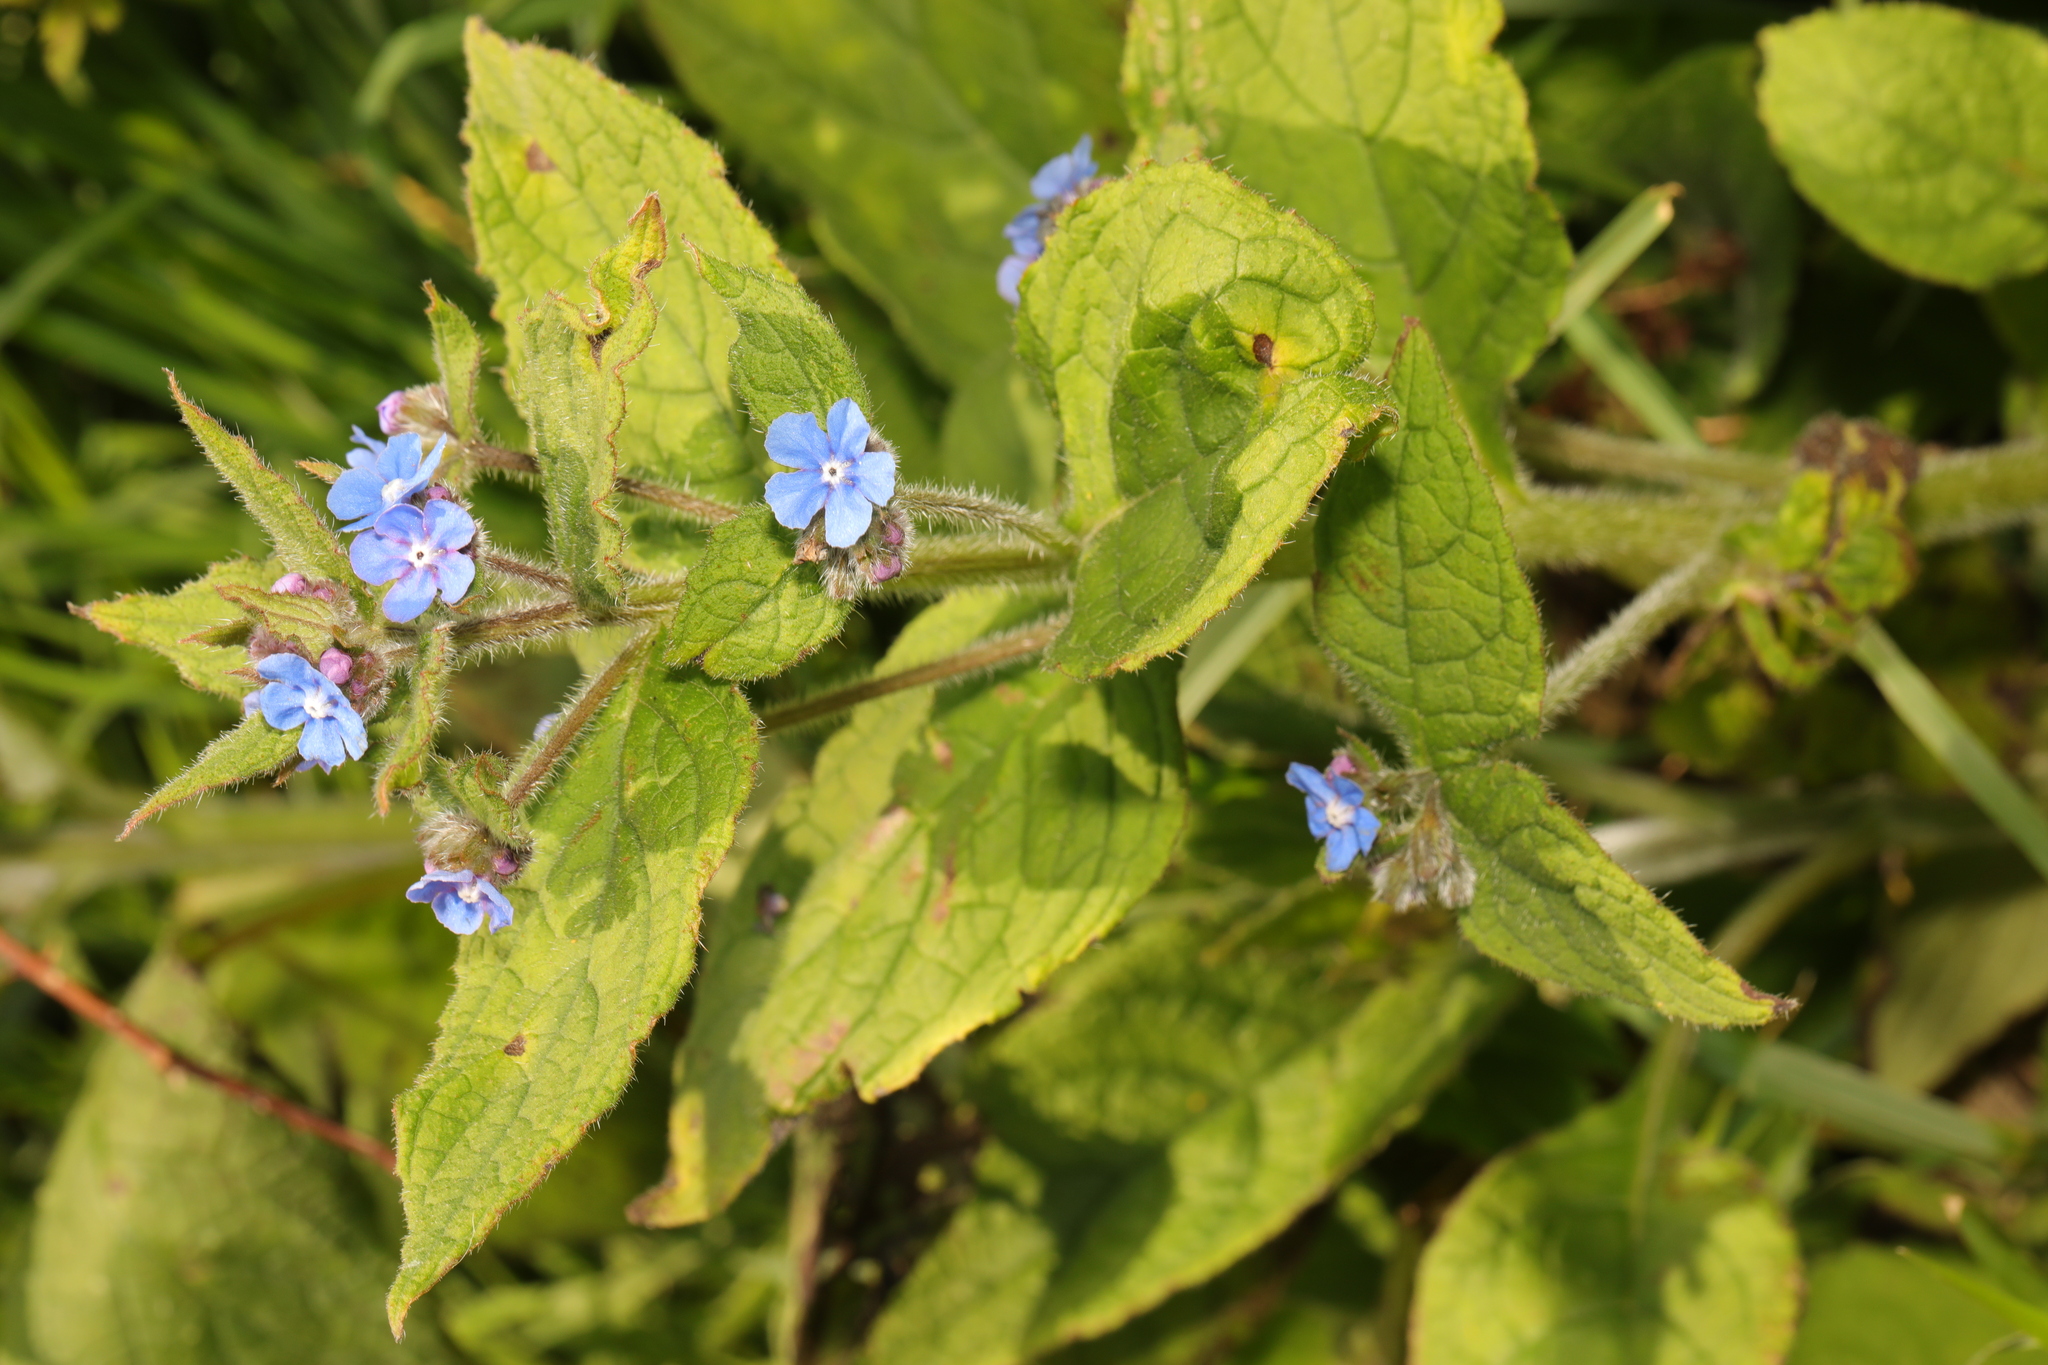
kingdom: Plantae
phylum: Tracheophyta
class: Magnoliopsida
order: Boraginales
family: Boraginaceae
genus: Pentaglottis
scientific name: Pentaglottis sempervirens
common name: Green alkanet
